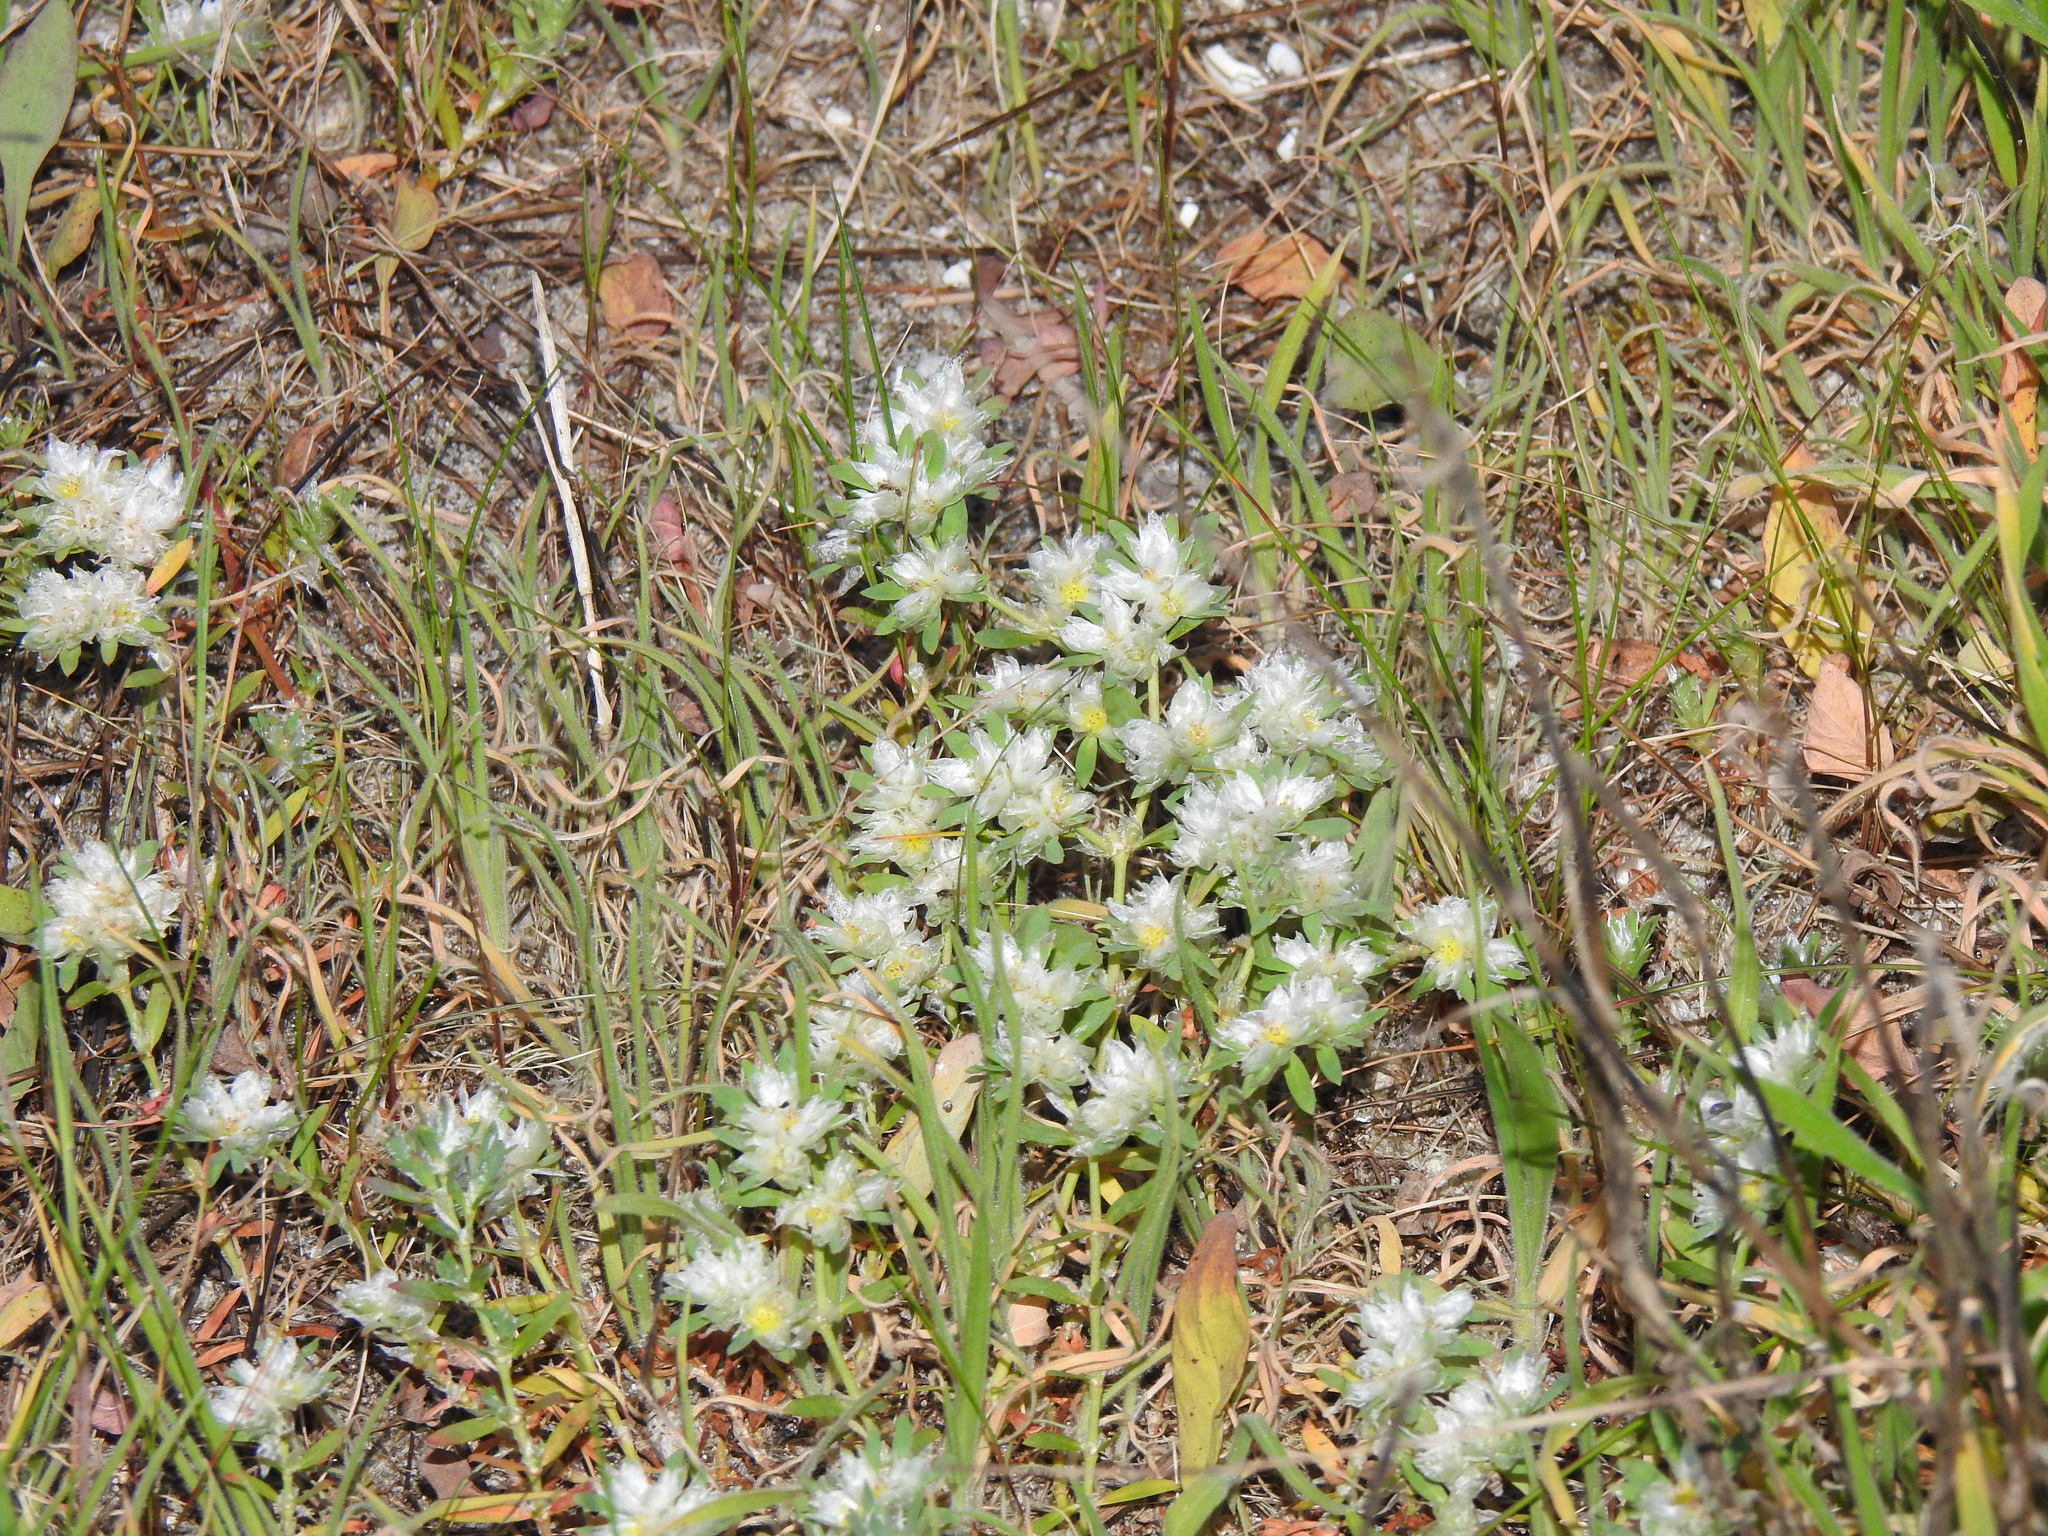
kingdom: Plantae
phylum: Tracheophyta
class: Magnoliopsida
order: Caryophyllales
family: Caryophyllaceae
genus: Paronychia
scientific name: Paronychia argentea
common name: Silver nailroot
